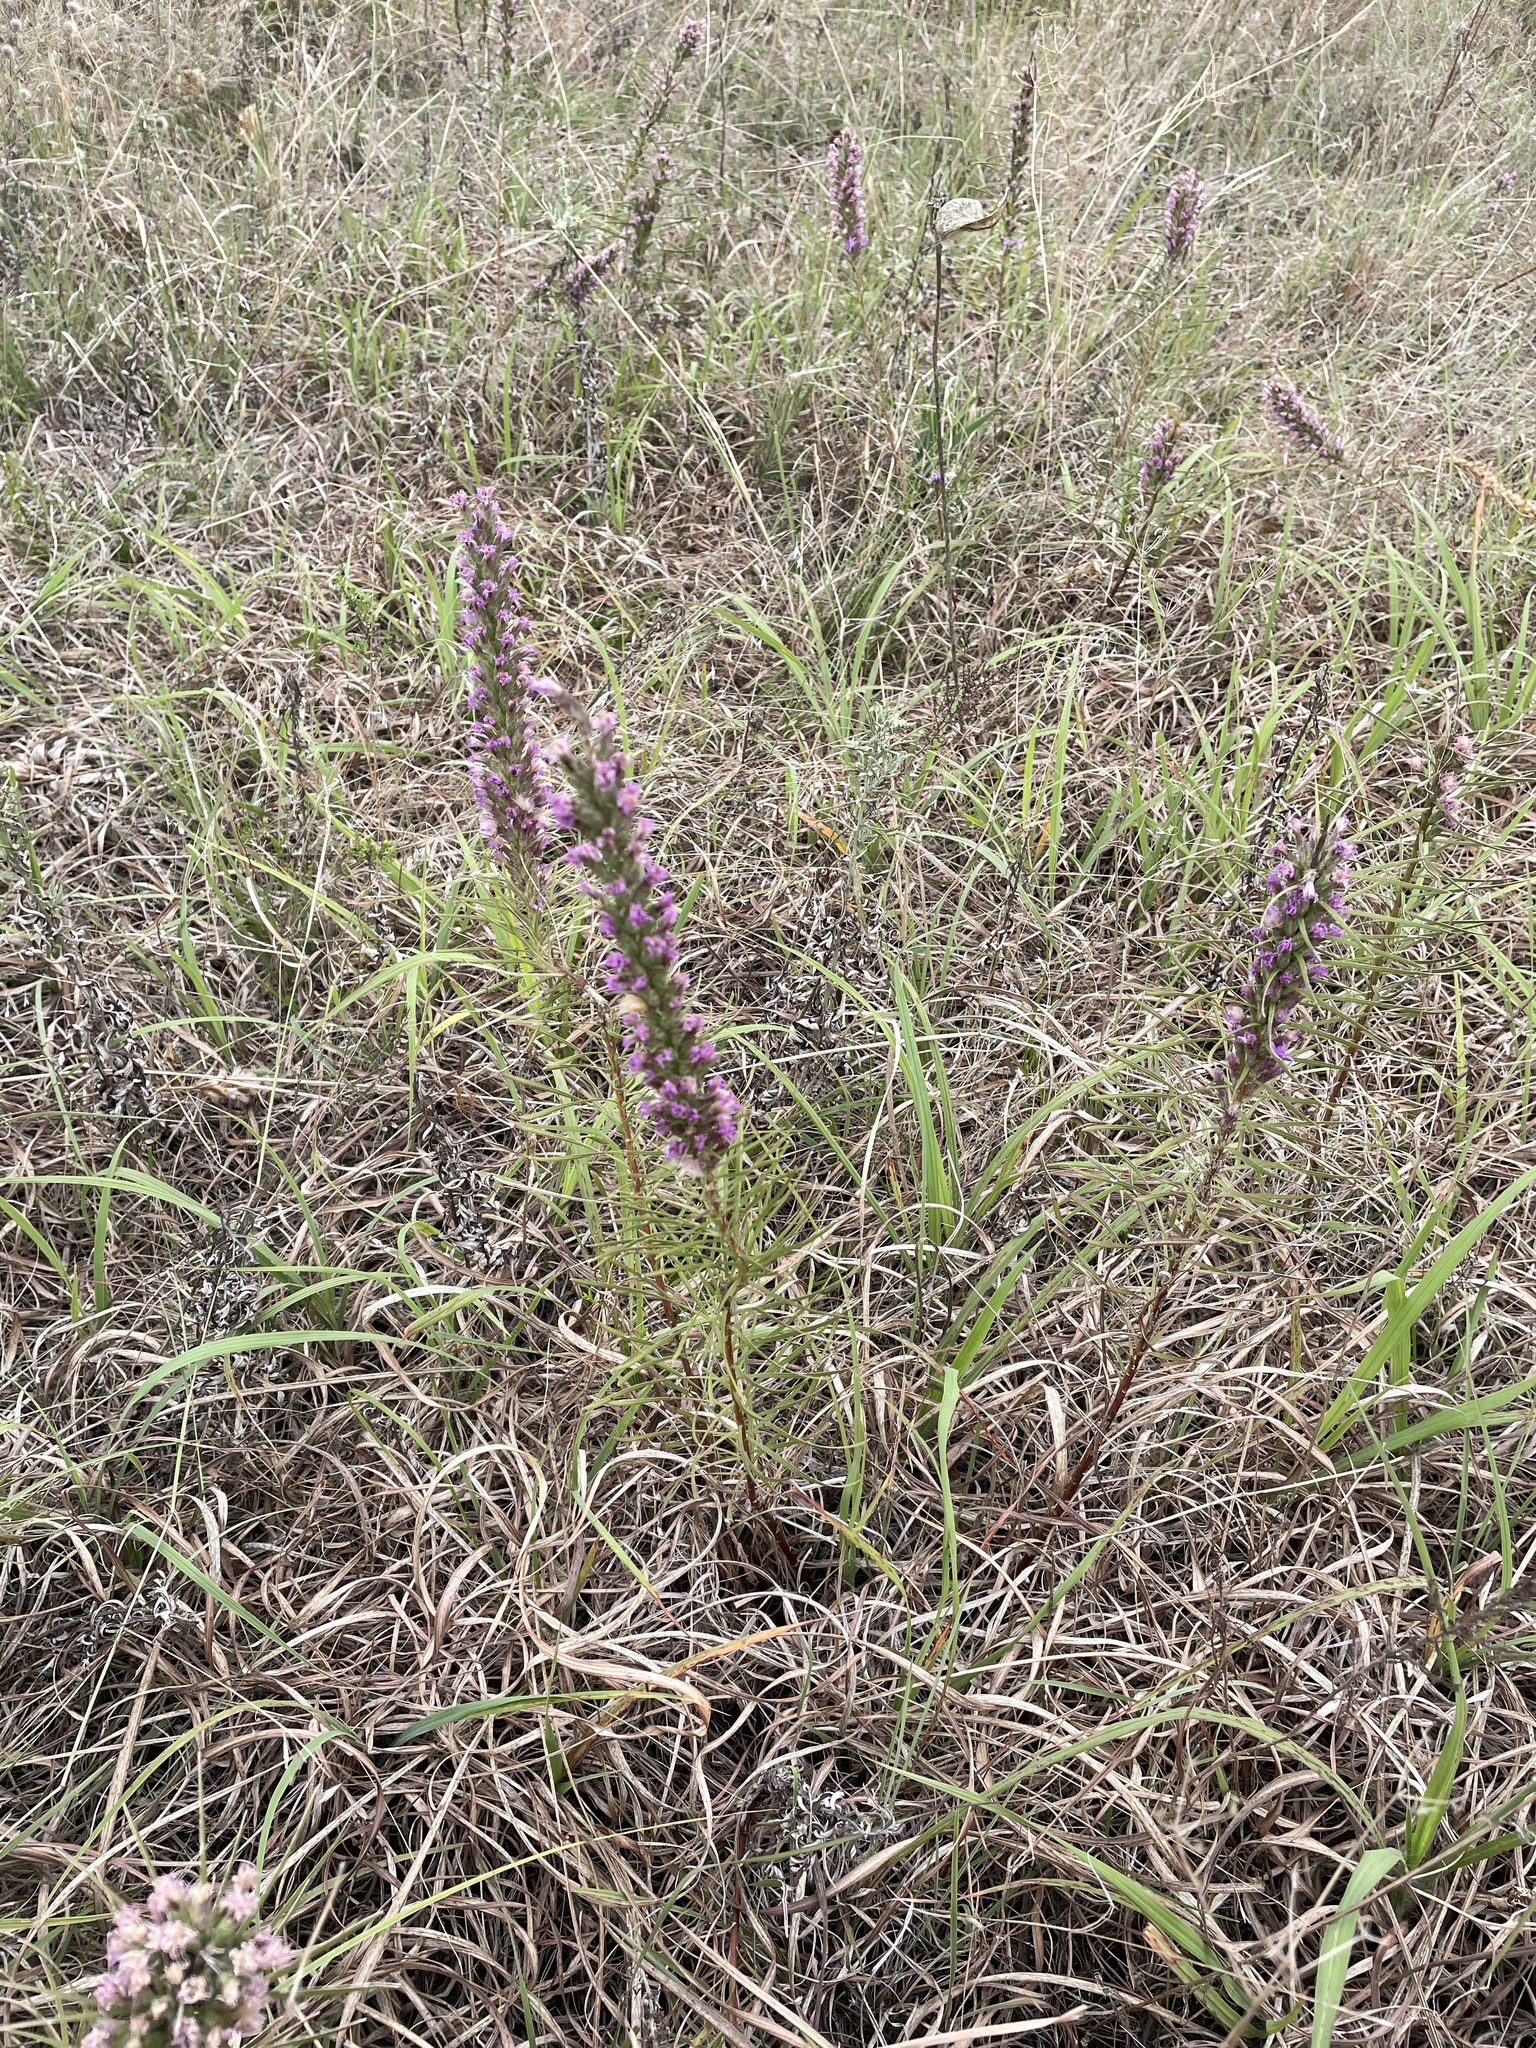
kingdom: Plantae
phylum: Tracheophyta
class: Magnoliopsida
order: Asterales
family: Asteraceae
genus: Liatris
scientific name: Liatris punctata
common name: Dotted gayfeather
